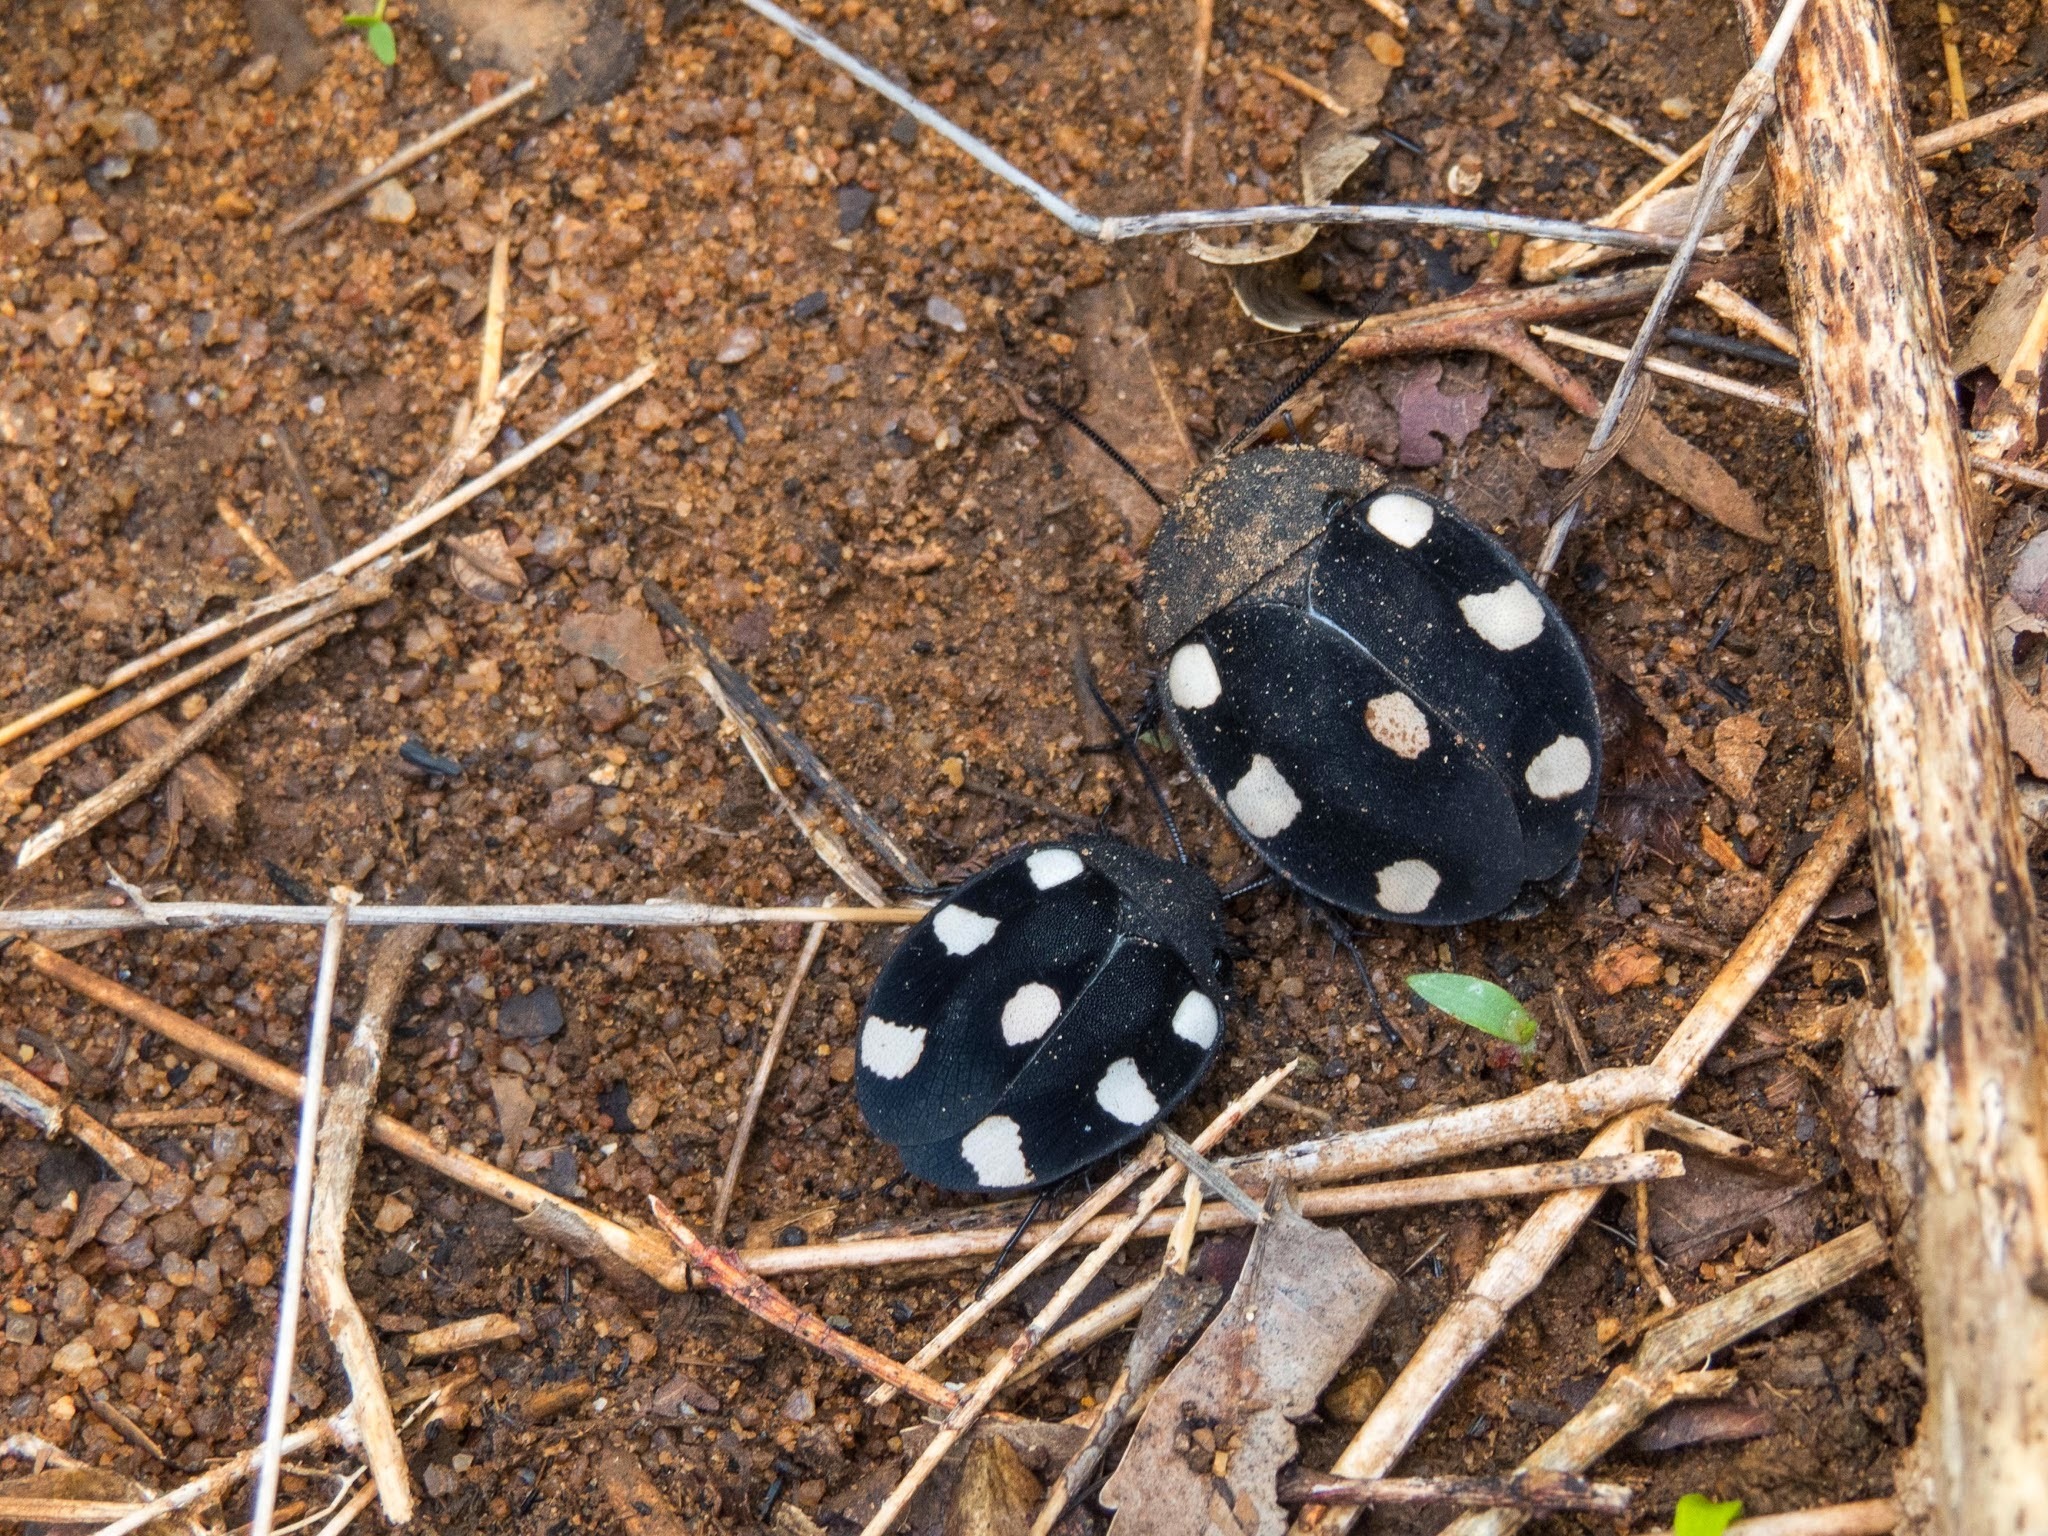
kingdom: Animalia
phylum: Arthropoda
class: Insecta
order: Blattodea
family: Corydiidae
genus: Therea
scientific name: Therea petiveriana
